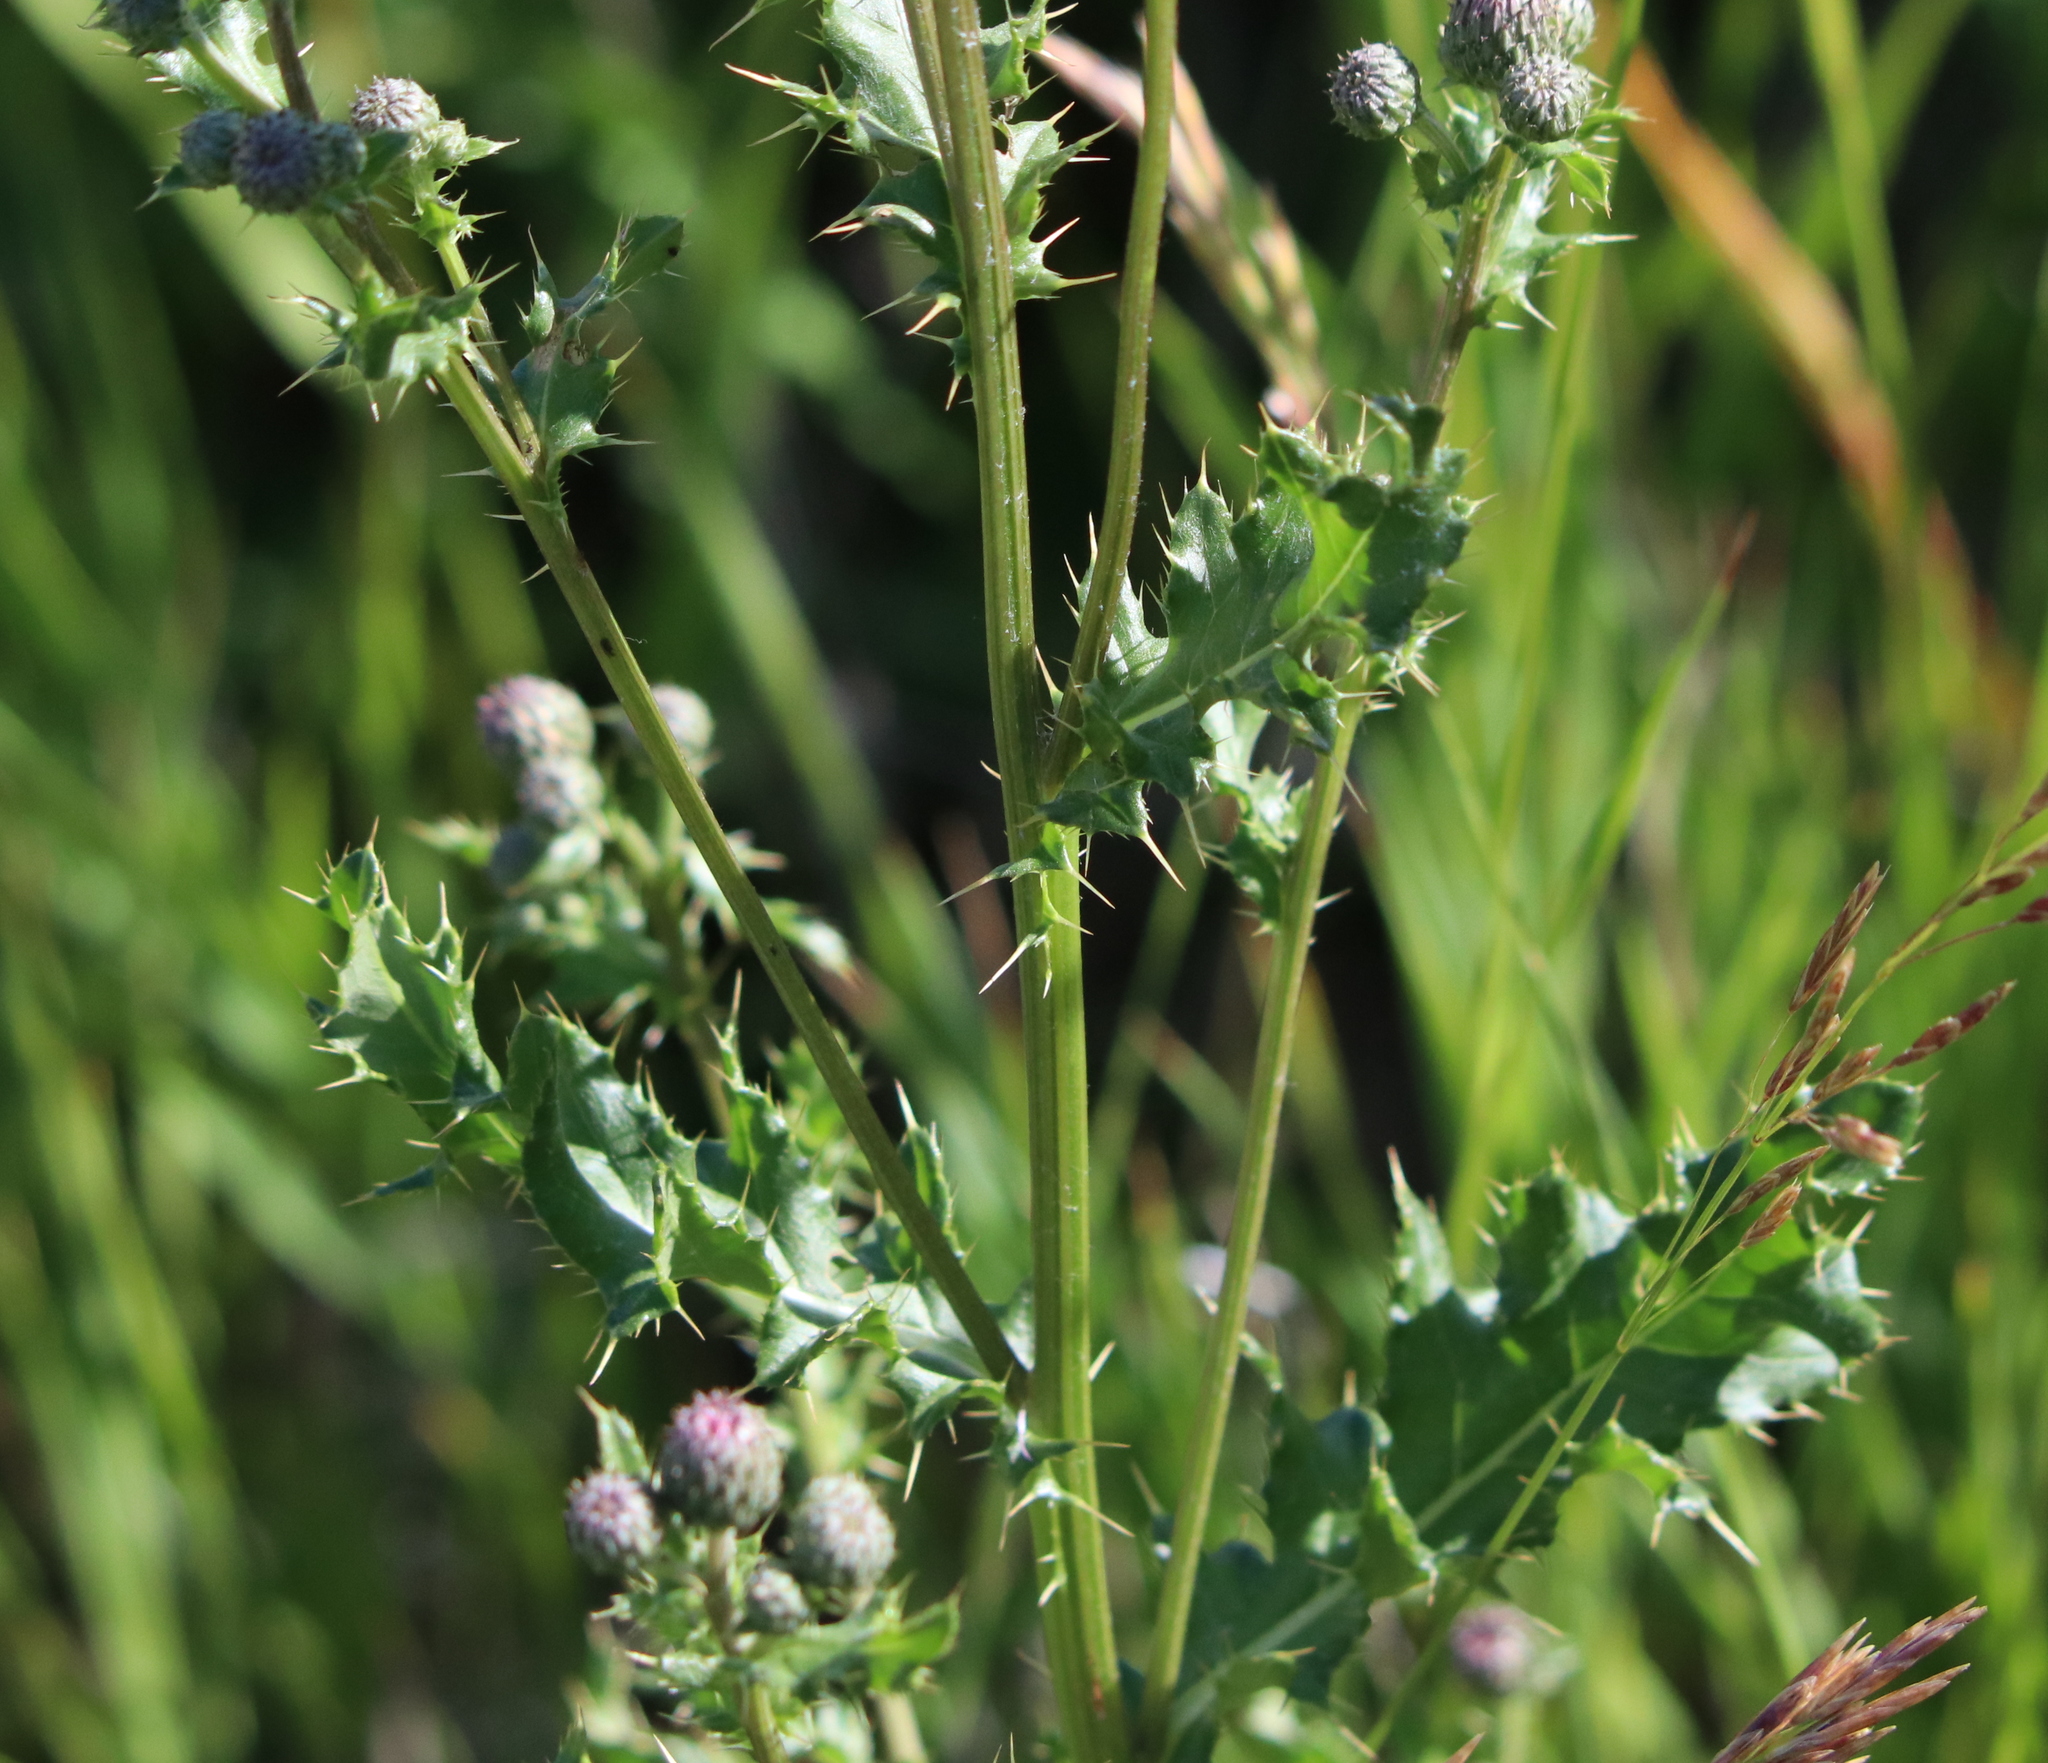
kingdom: Plantae
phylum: Tracheophyta
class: Magnoliopsida
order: Asterales
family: Asteraceae
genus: Cirsium
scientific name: Cirsium arvense
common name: Creeping thistle
